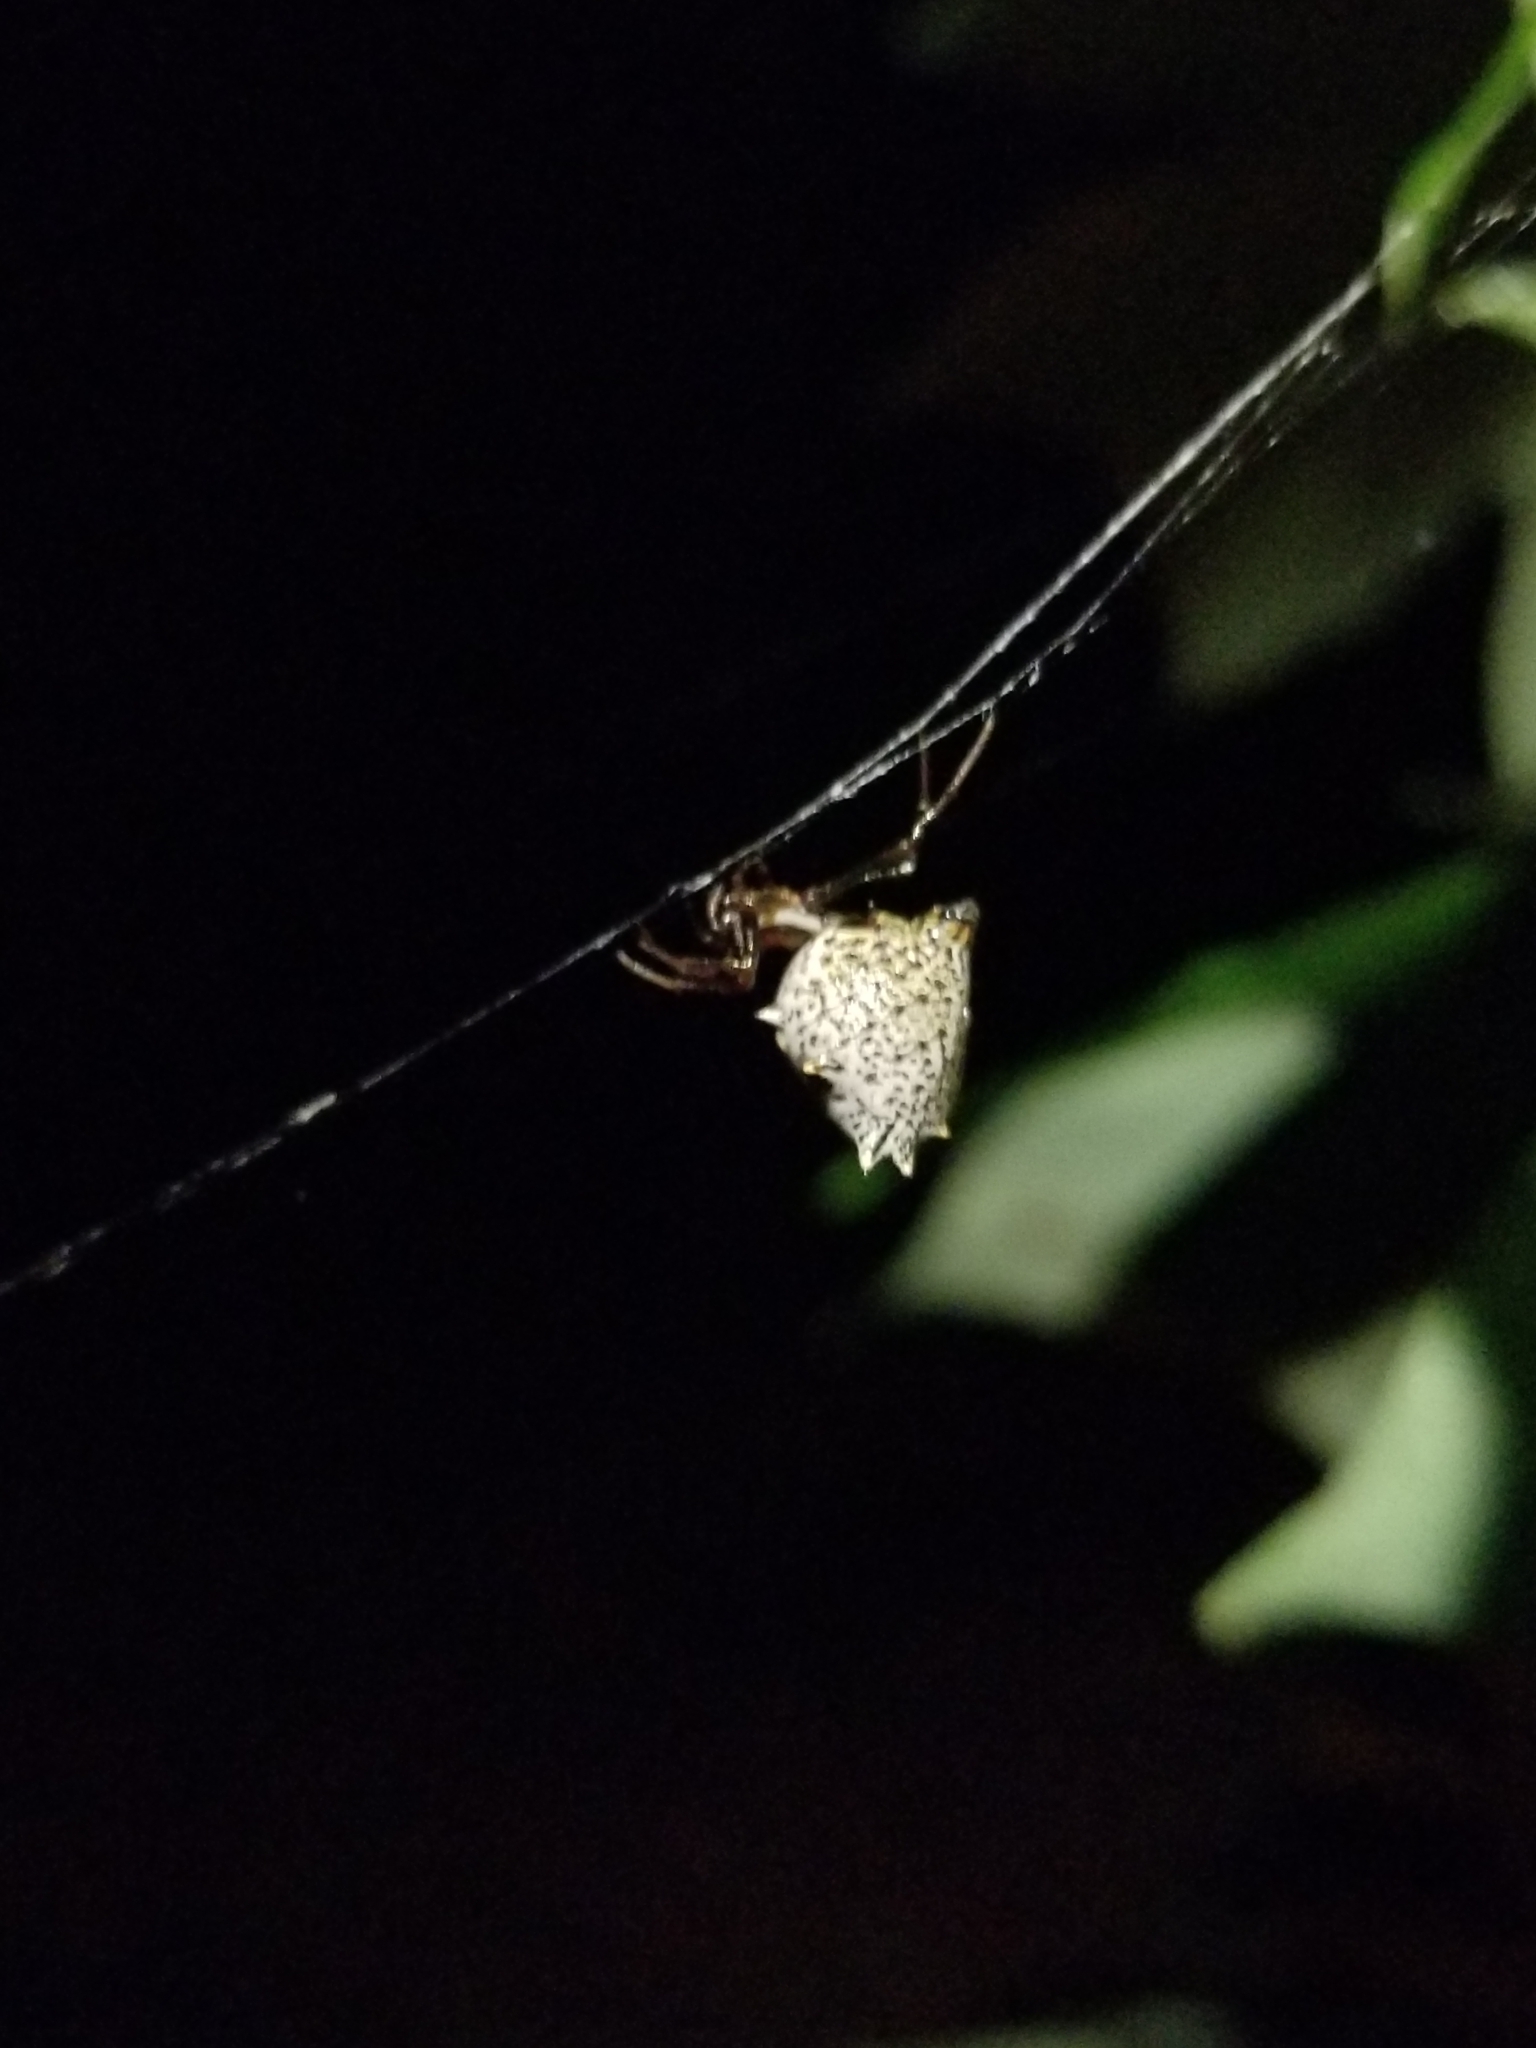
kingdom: Animalia
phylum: Arthropoda
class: Arachnida
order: Araneae
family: Araneidae
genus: Micrathena
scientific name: Micrathena gracilis
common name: Orb weavers
